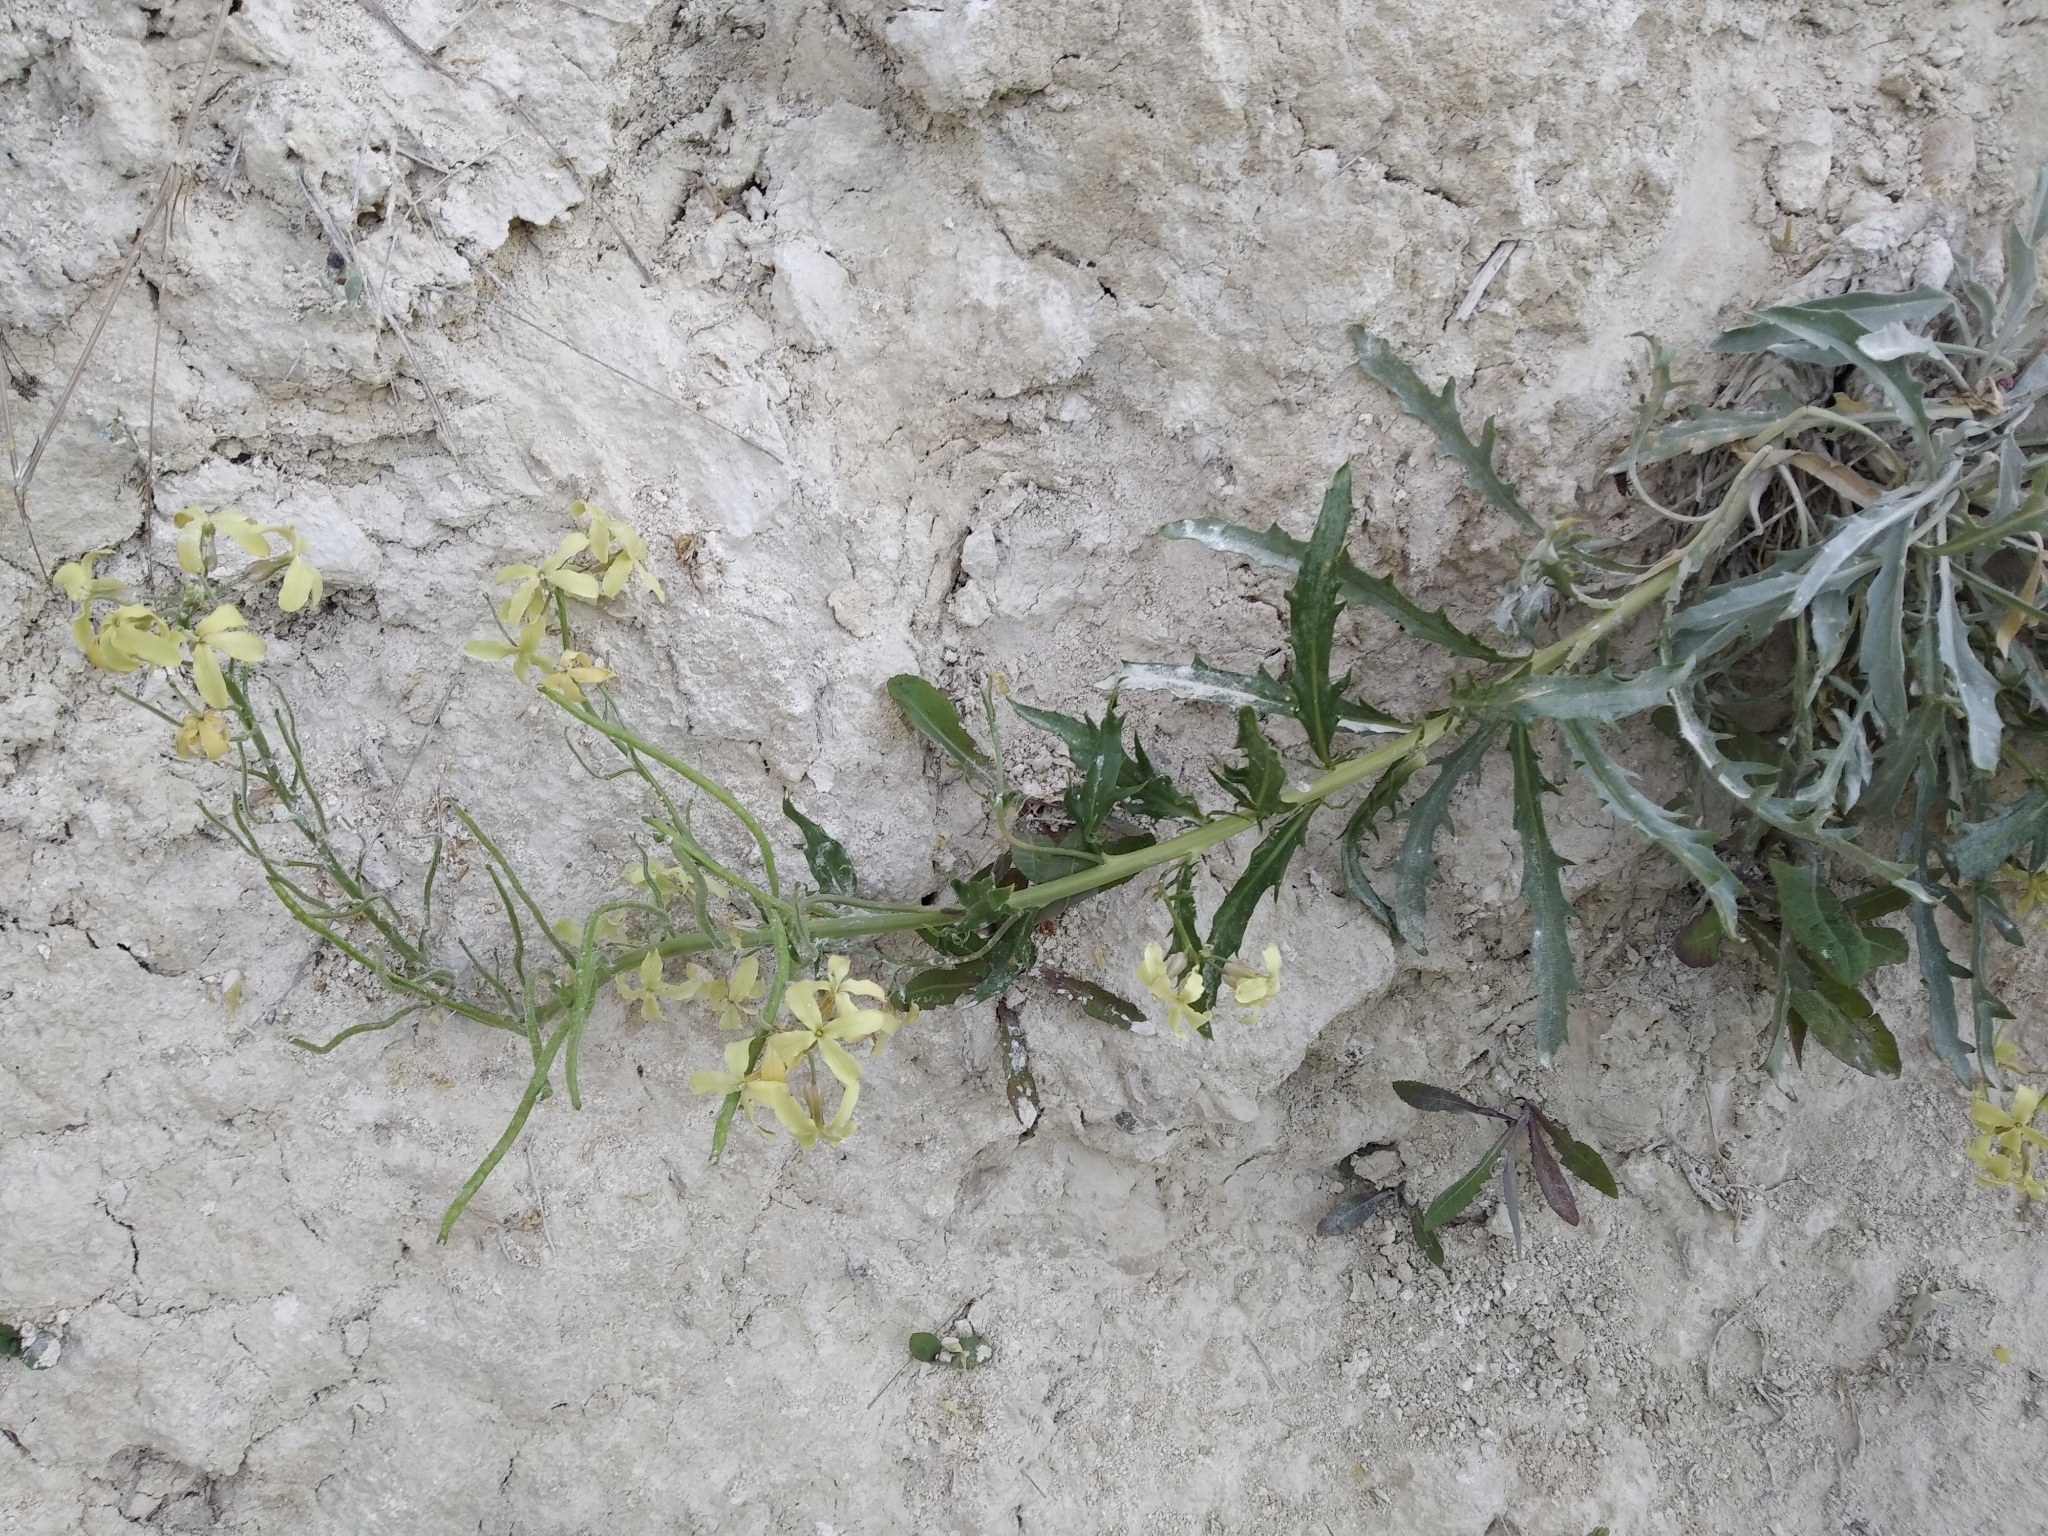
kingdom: Plantae
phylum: Tracheophyta
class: Magnoliopsida
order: Brassicales
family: Brassicaceae
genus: Matthiola
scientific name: Matthiola fragrans
